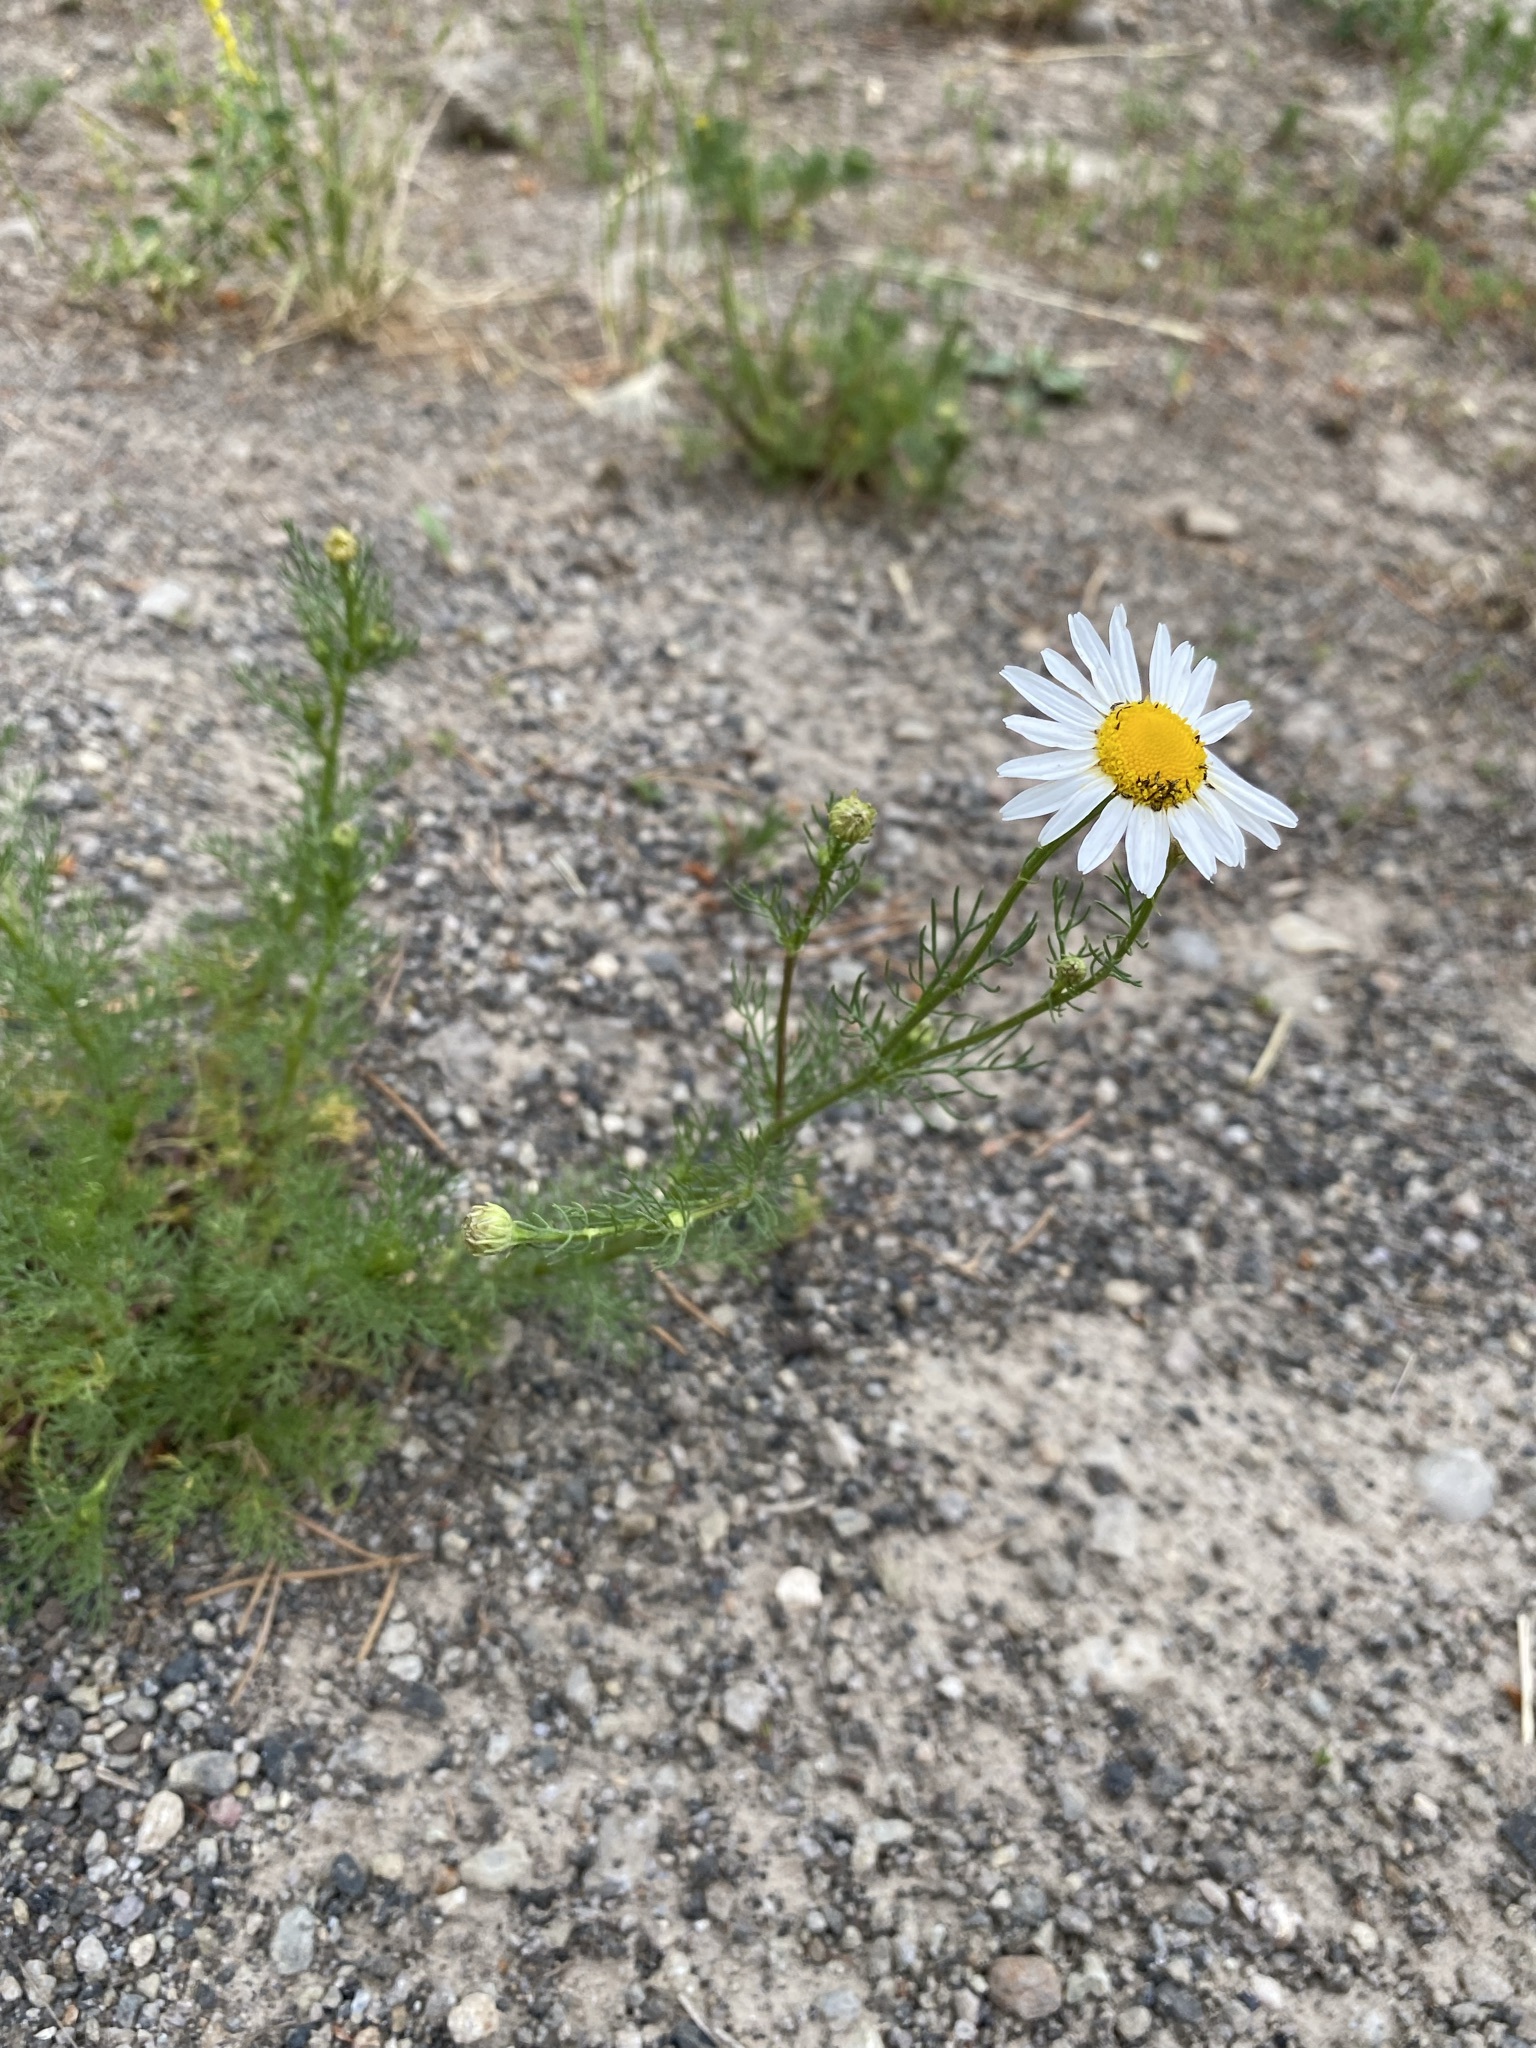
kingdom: Plantae
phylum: Tracheophyta
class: Magnoliopsida
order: Asterales
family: Asteraceae
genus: Tripleurospermum
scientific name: Tripleurospermum inodorum
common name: Scentless mayweed
